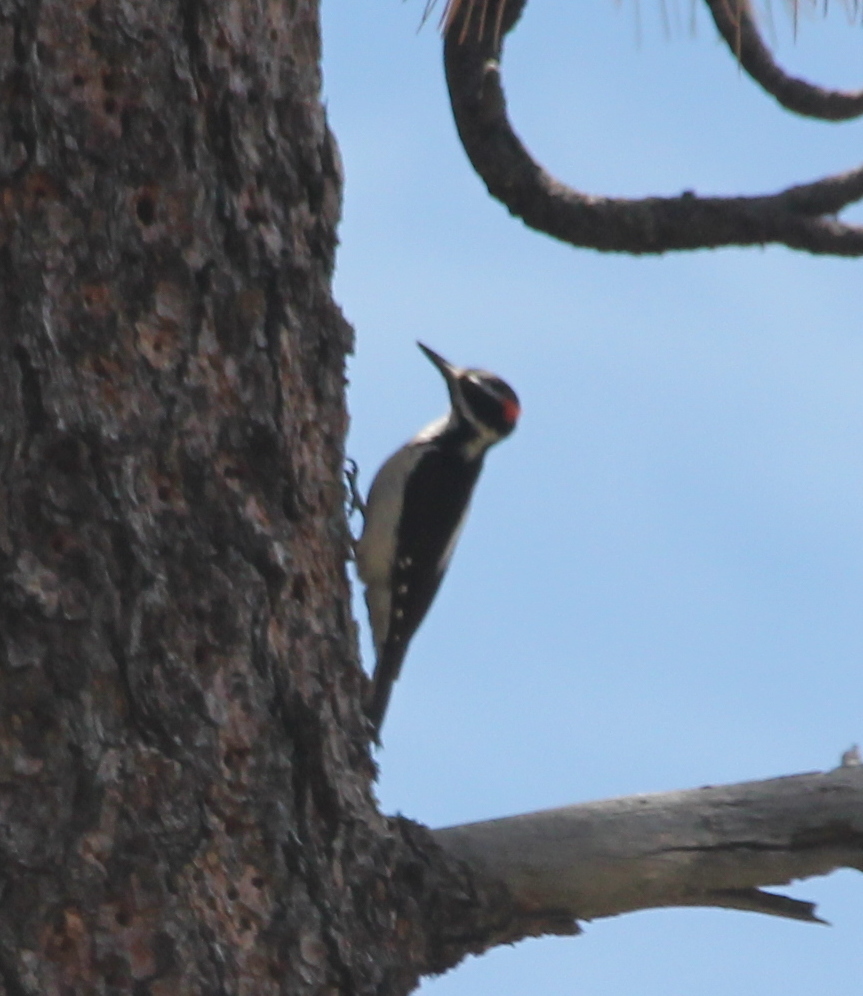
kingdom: Animalia
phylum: Chordata
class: Aves
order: Piciformes
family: Picidae
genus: Leuconotopicus
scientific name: Leuconotopicus villosus
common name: Hairy woodpecker
